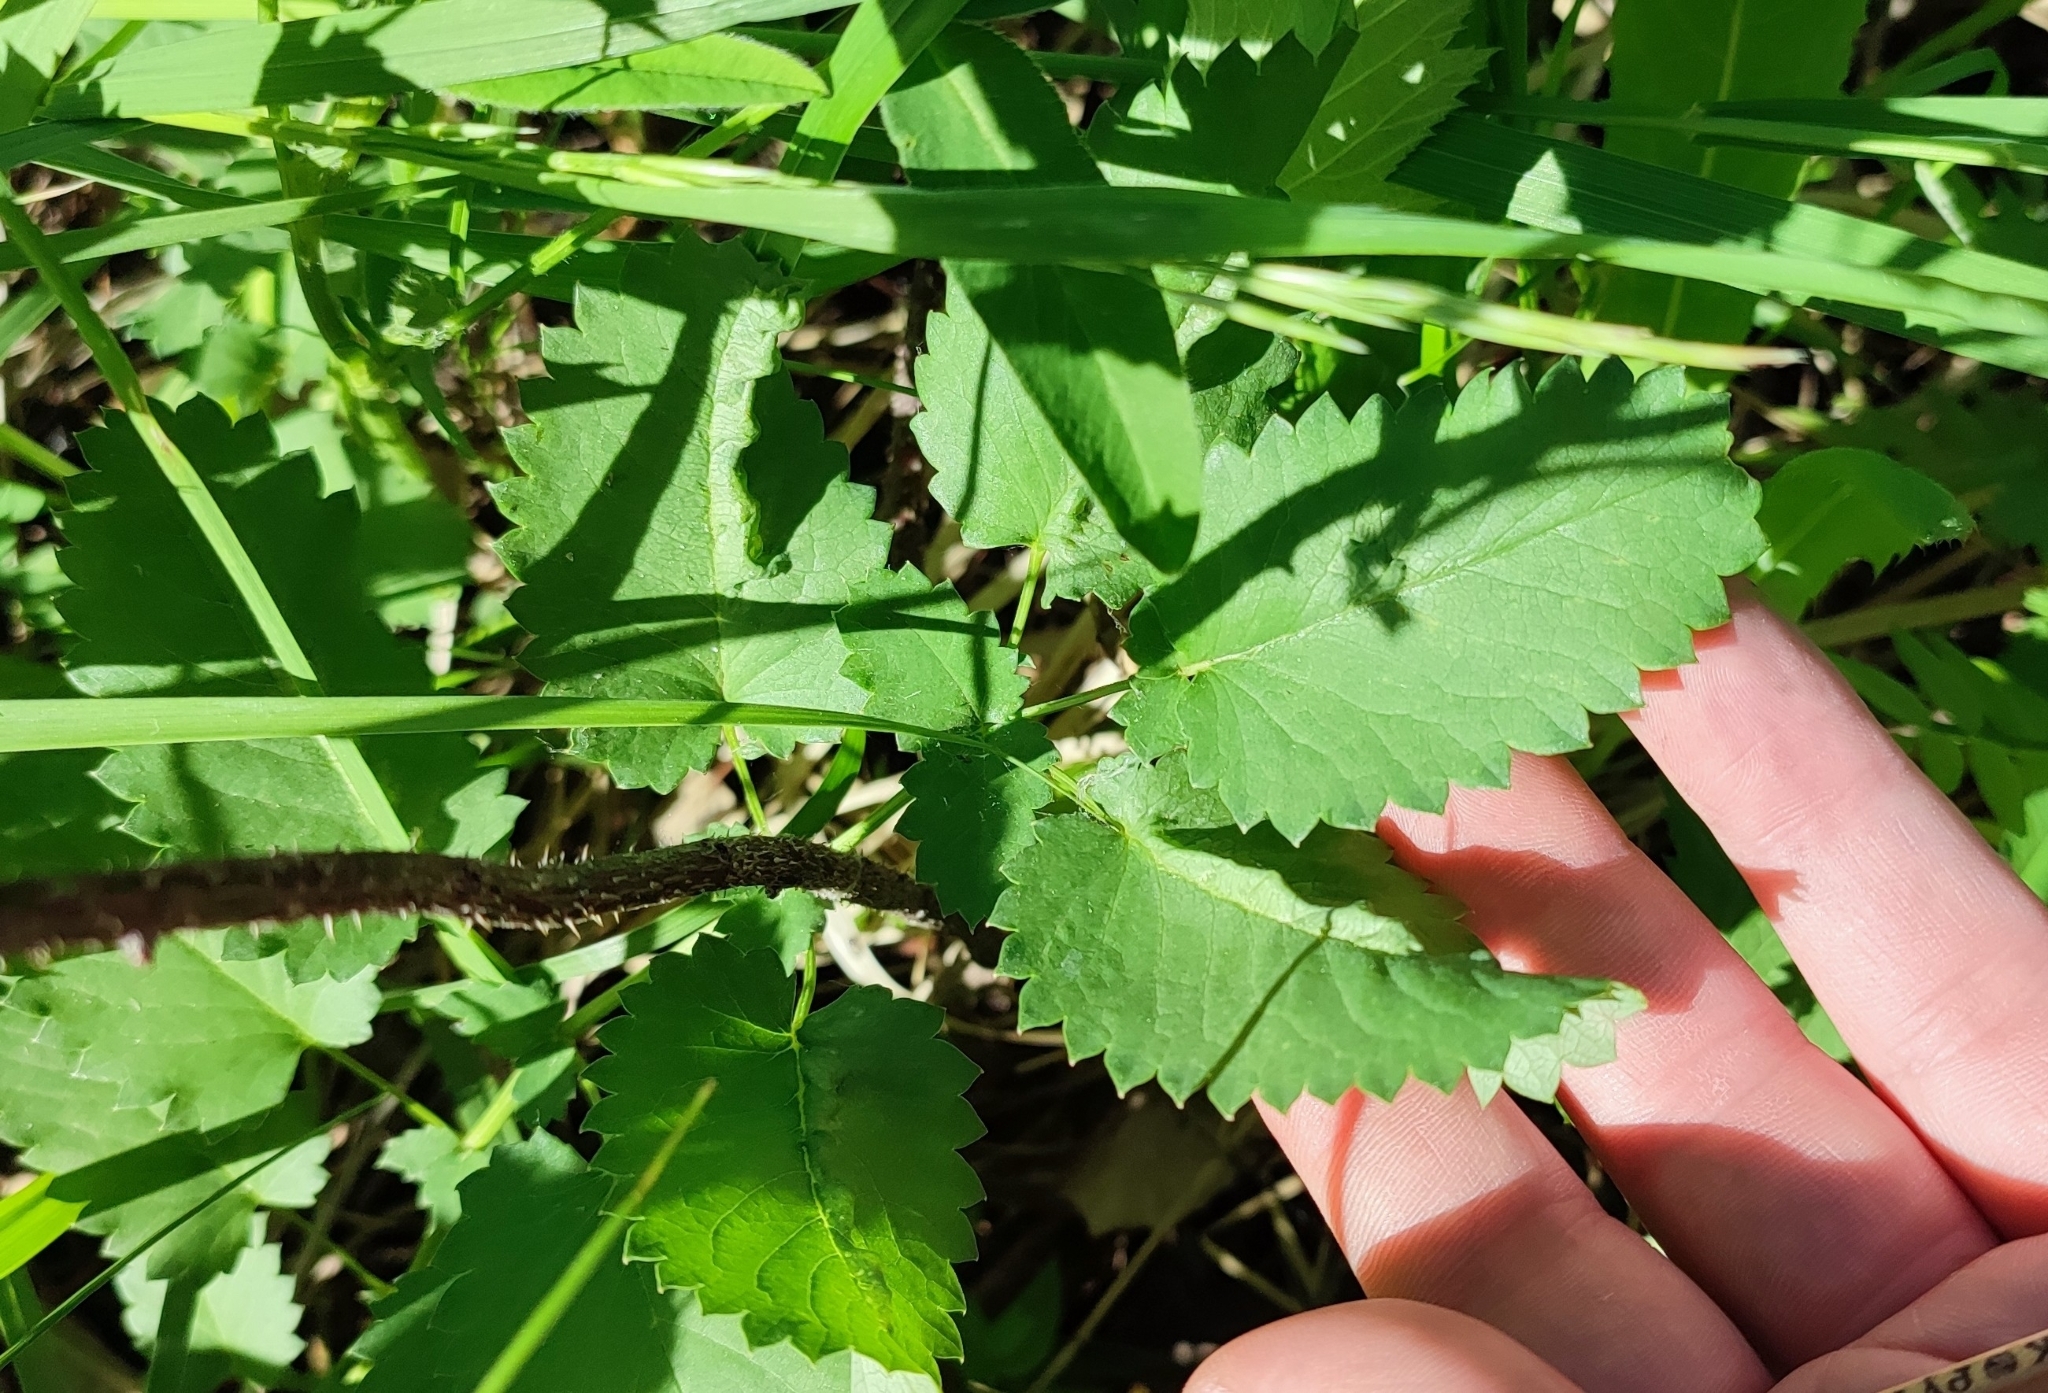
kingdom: Plantae
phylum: Tracheophyta
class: Magnoliopsida
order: Rosales
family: Rosaceae
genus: Sanguisorba
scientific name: Sanguisorba officinalis
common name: Great burnet
